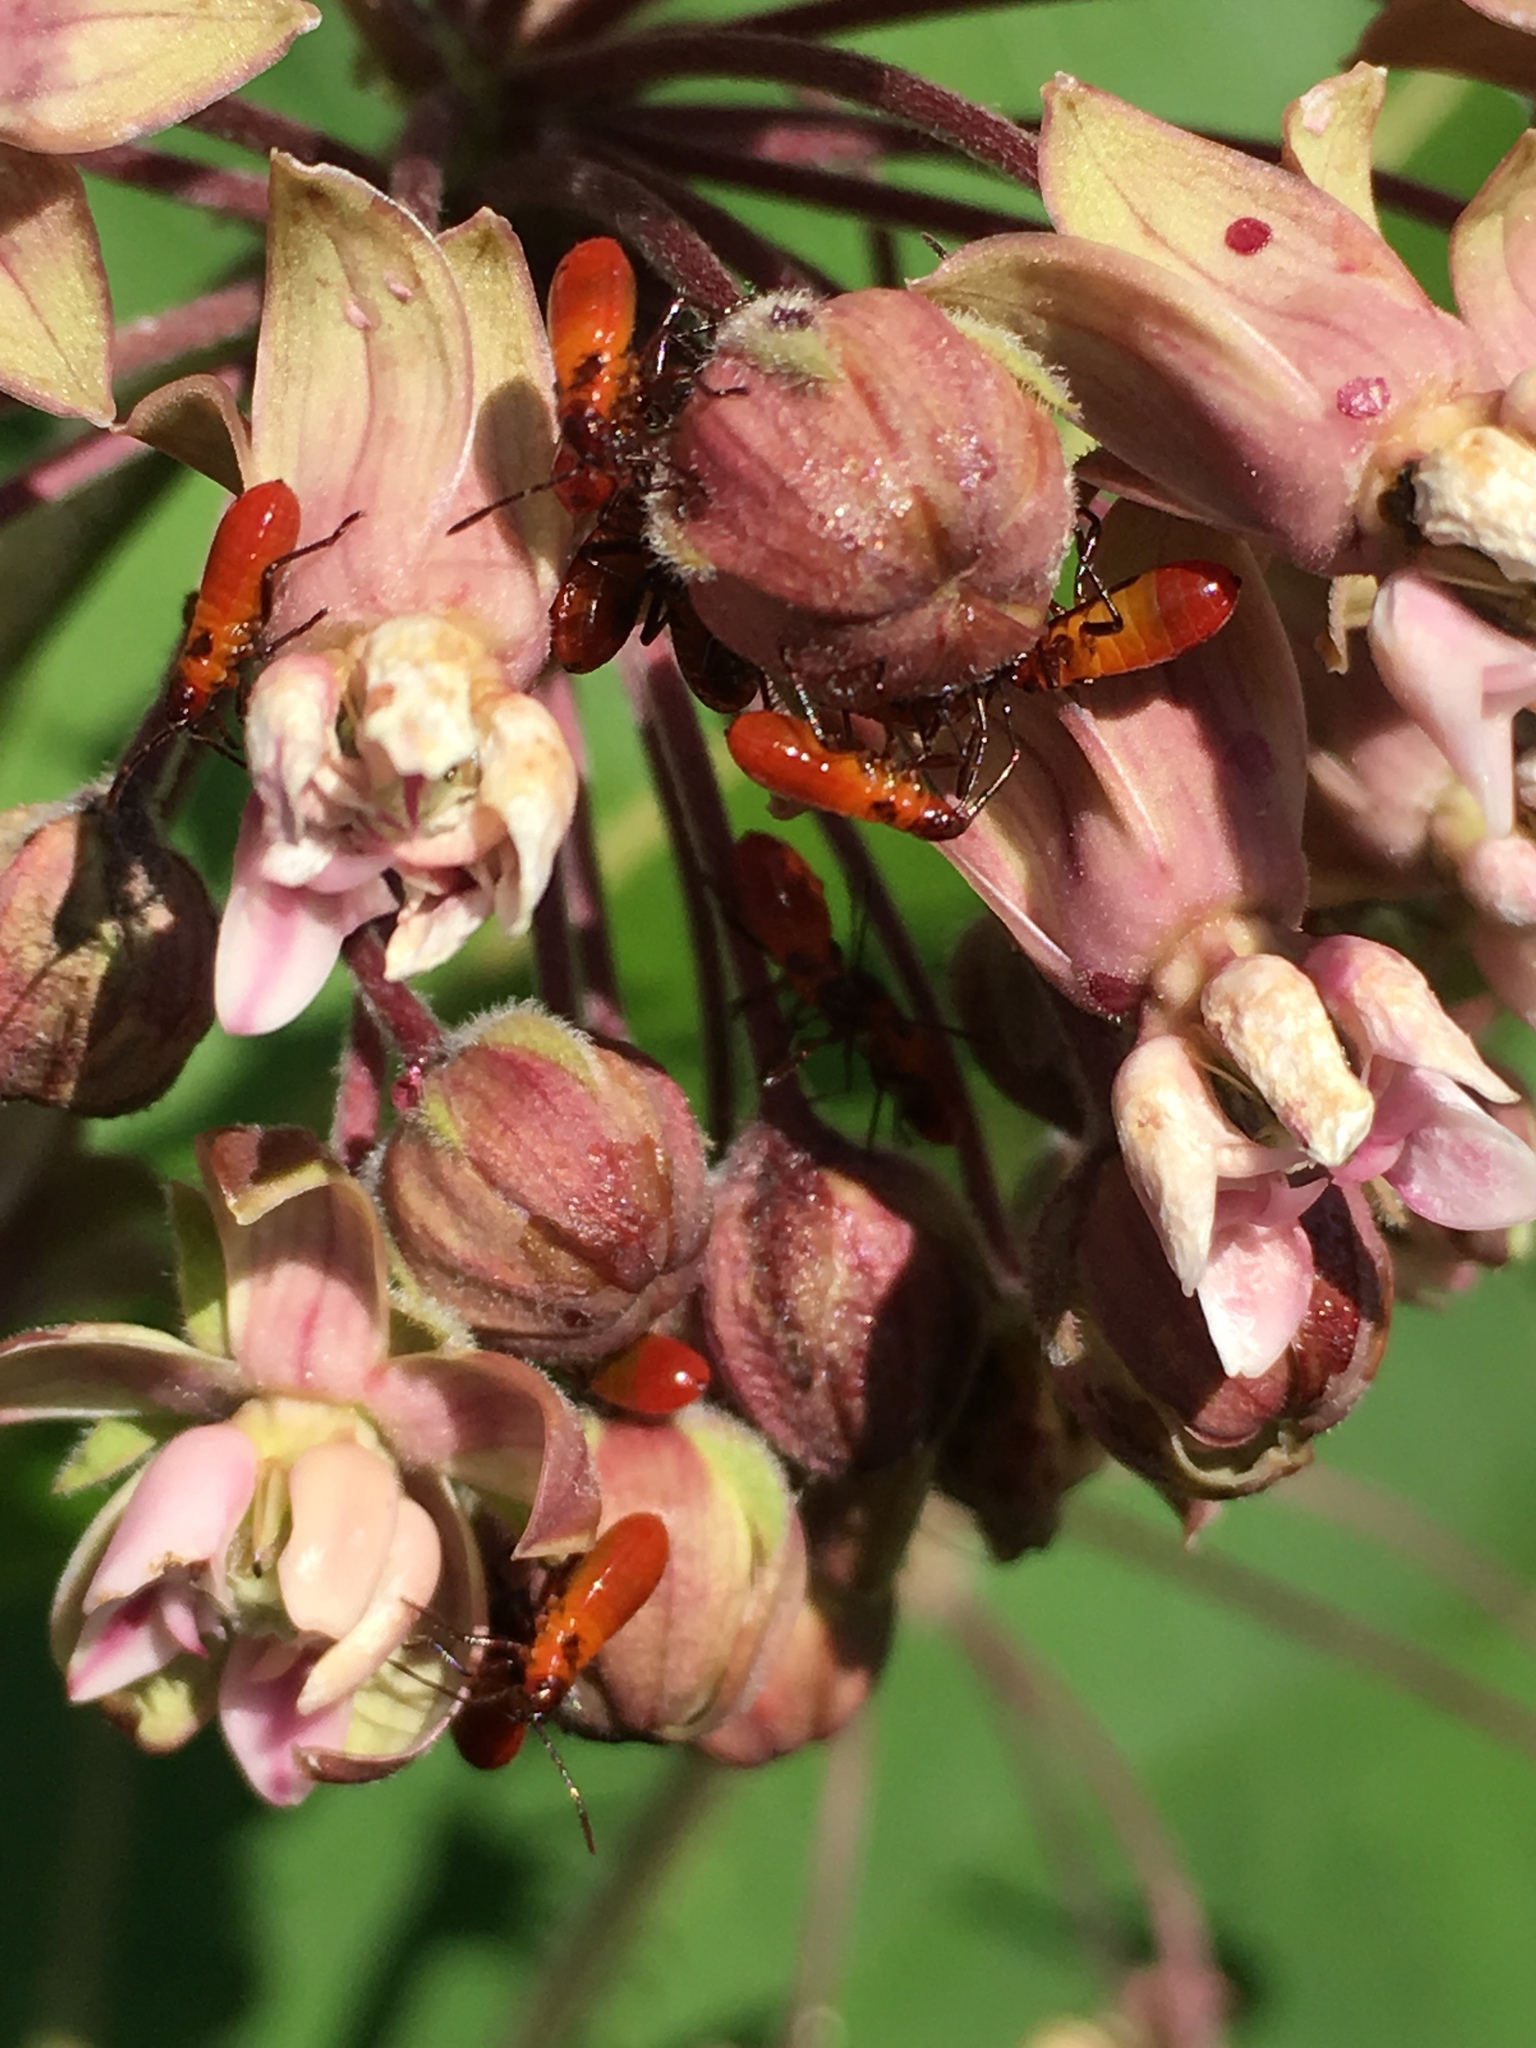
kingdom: Animalia
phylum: Arthropoda
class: Insecta
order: Hemiptera
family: Lygaeidae
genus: Oncopeltus
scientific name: Oncopeltus fasciatus
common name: Large milkweed bug
